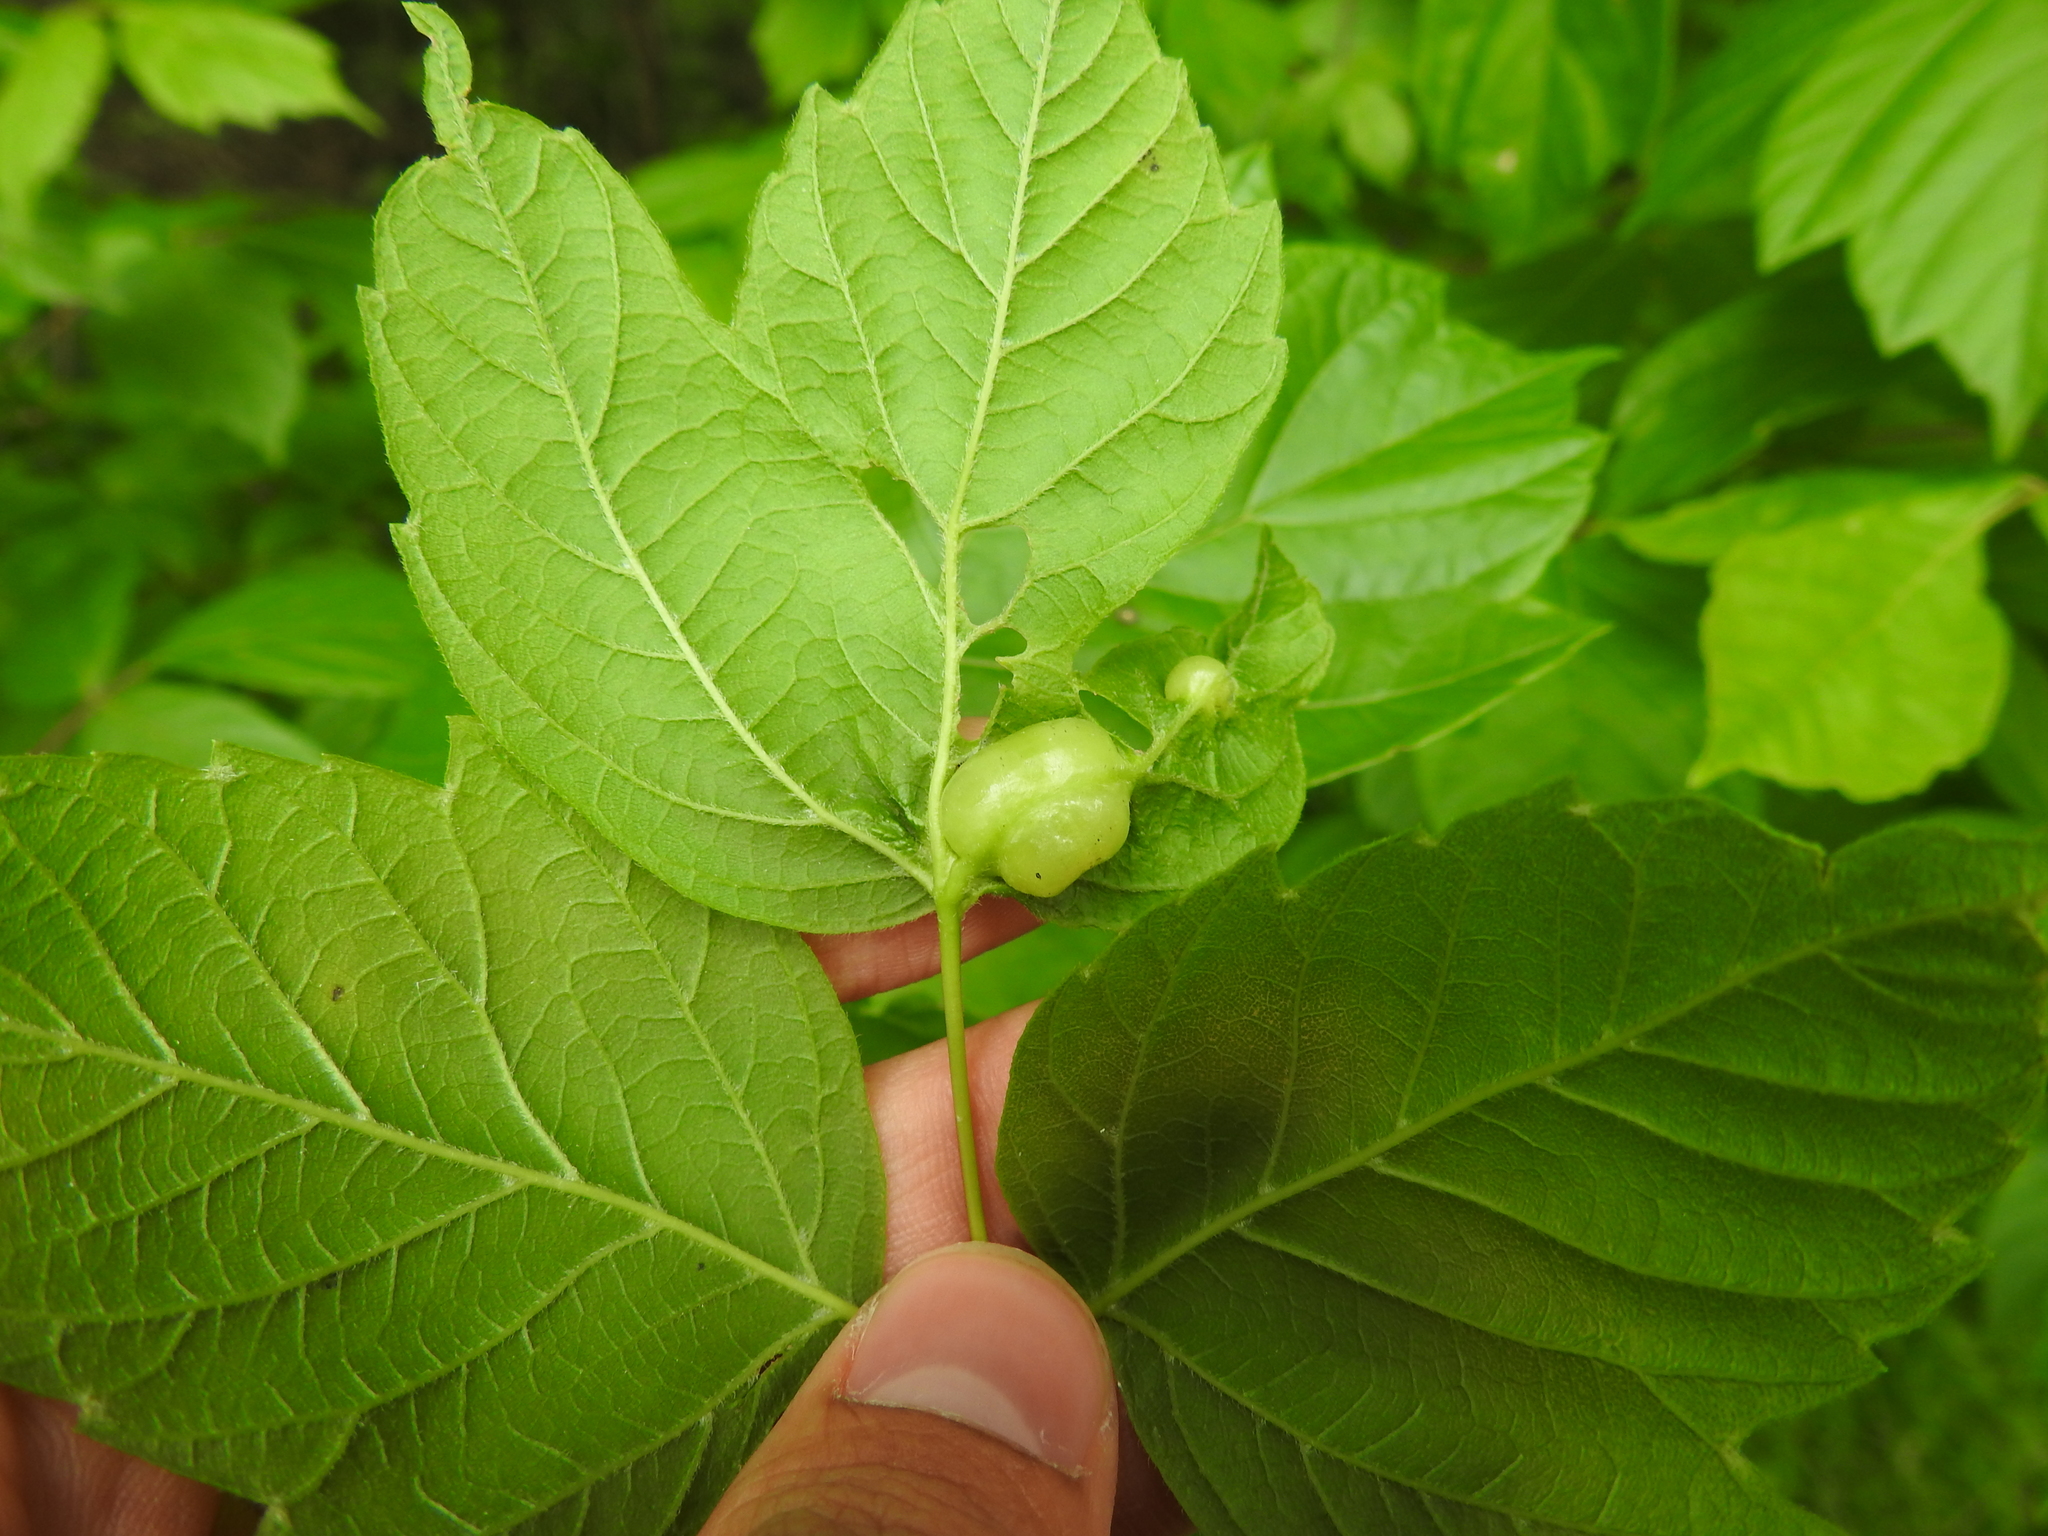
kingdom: Animalia
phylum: Arthropoda
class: Insecta
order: Diptera
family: Cecidomyiidae
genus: Contarinia
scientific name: Contarinia negundinis
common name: Boxelder budgall midge
